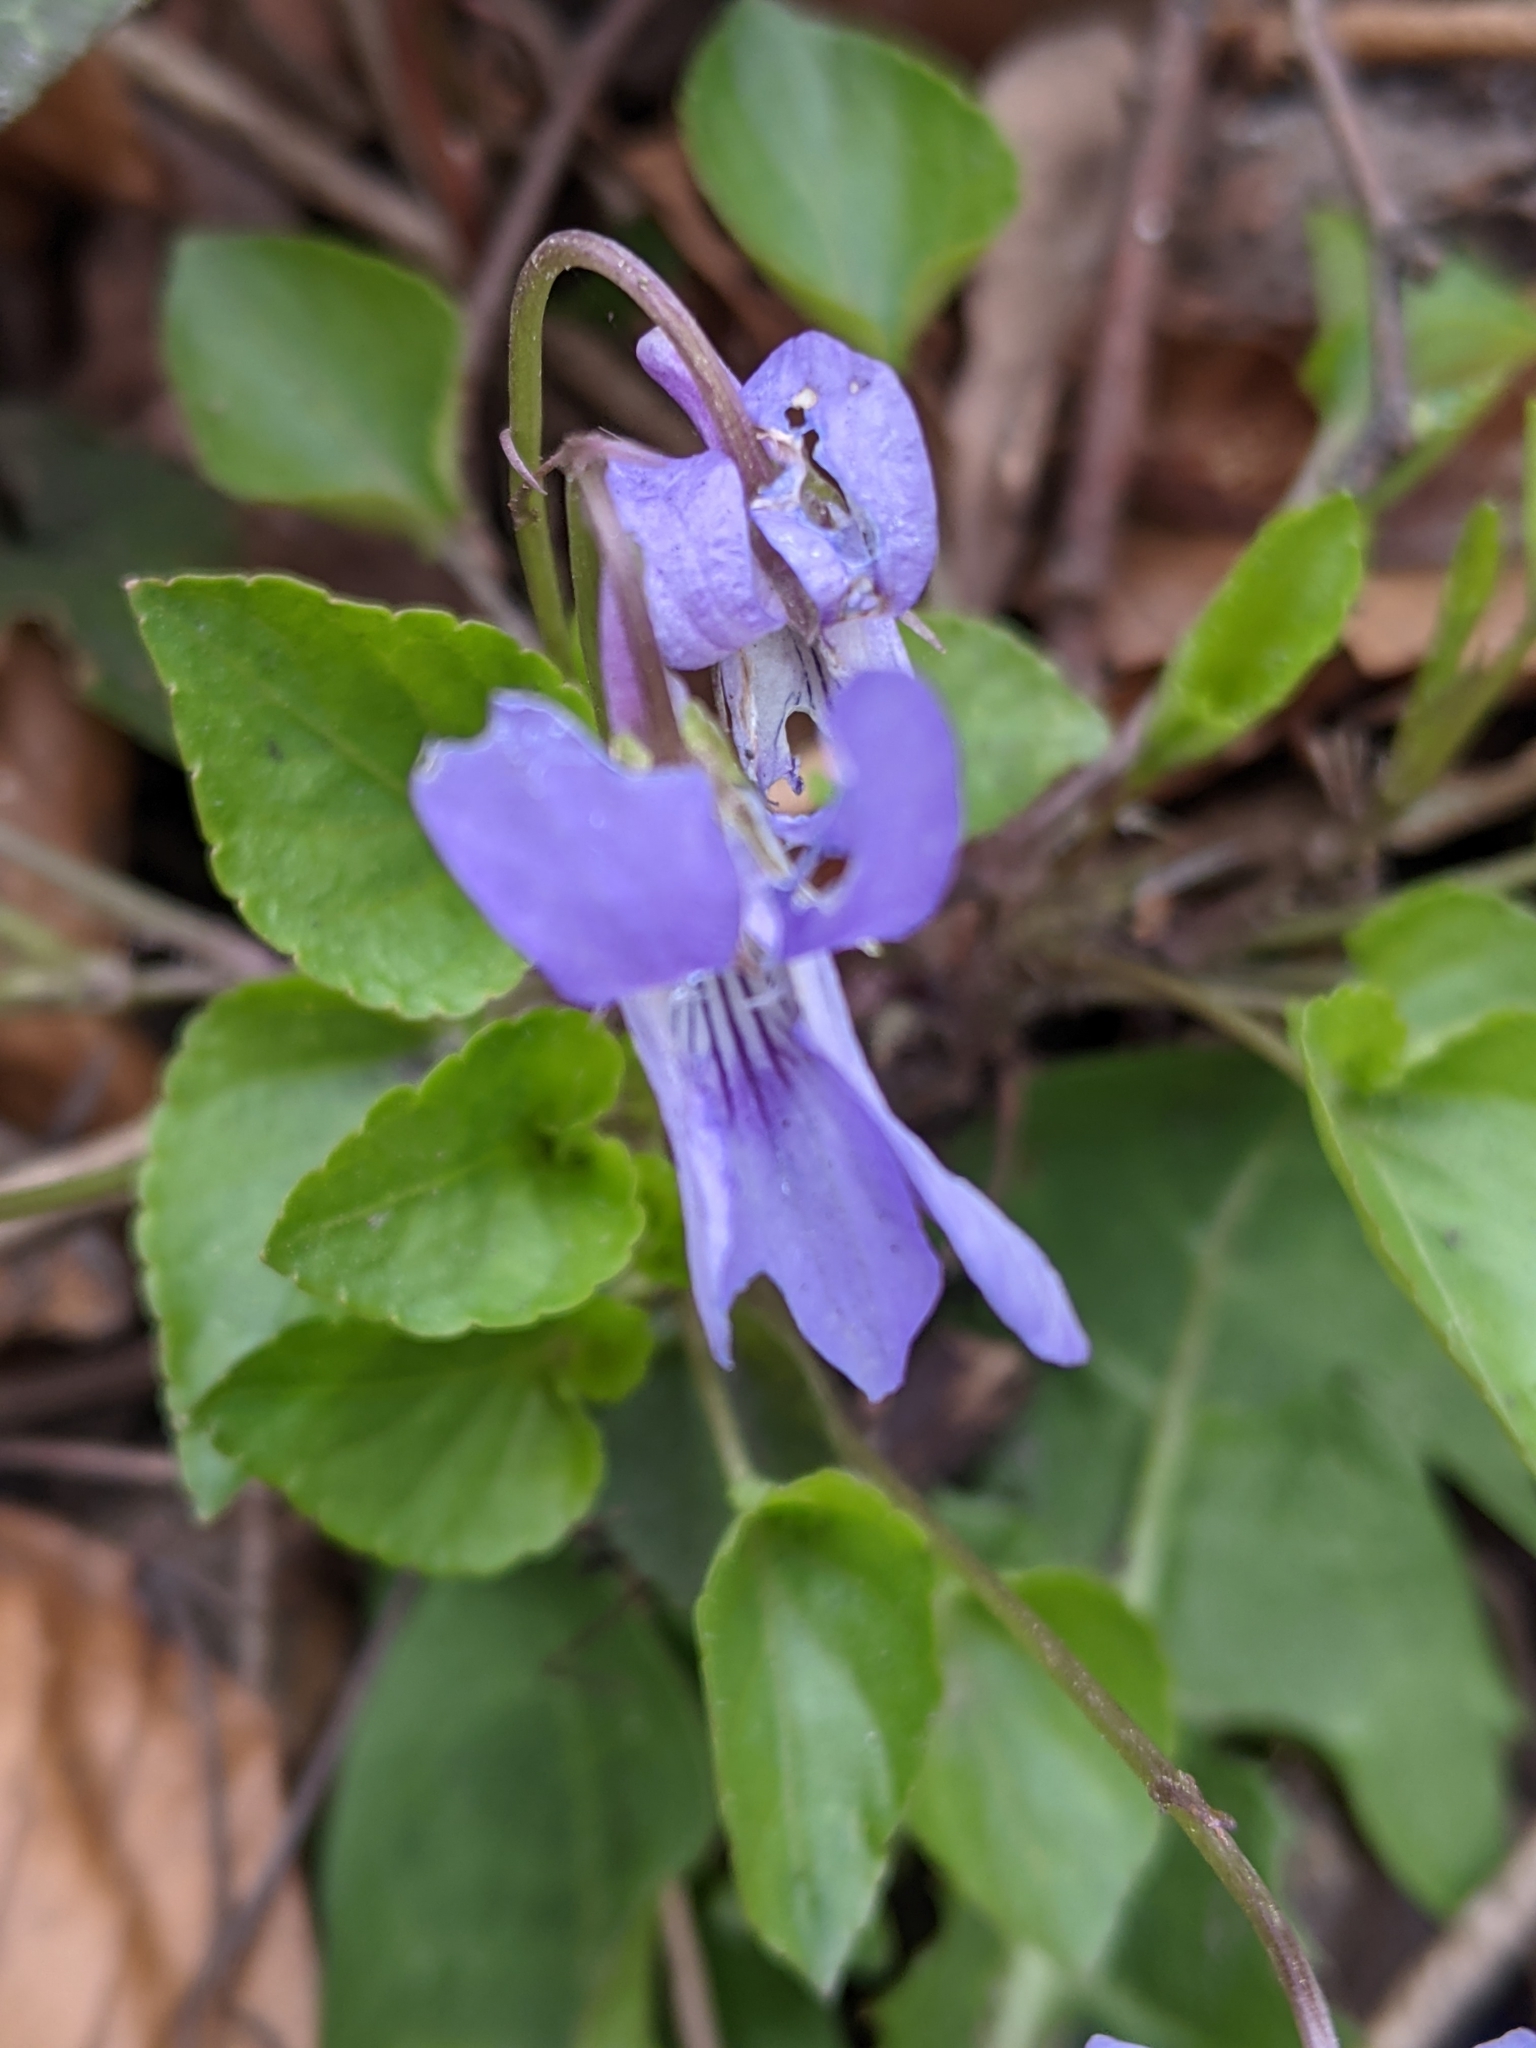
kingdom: Plantae
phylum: Tracheophyta
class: Magnoliopsida
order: Malpighiales
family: Violaceae
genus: Viola
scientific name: Viola reichenbachiana
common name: Early dog-violet
